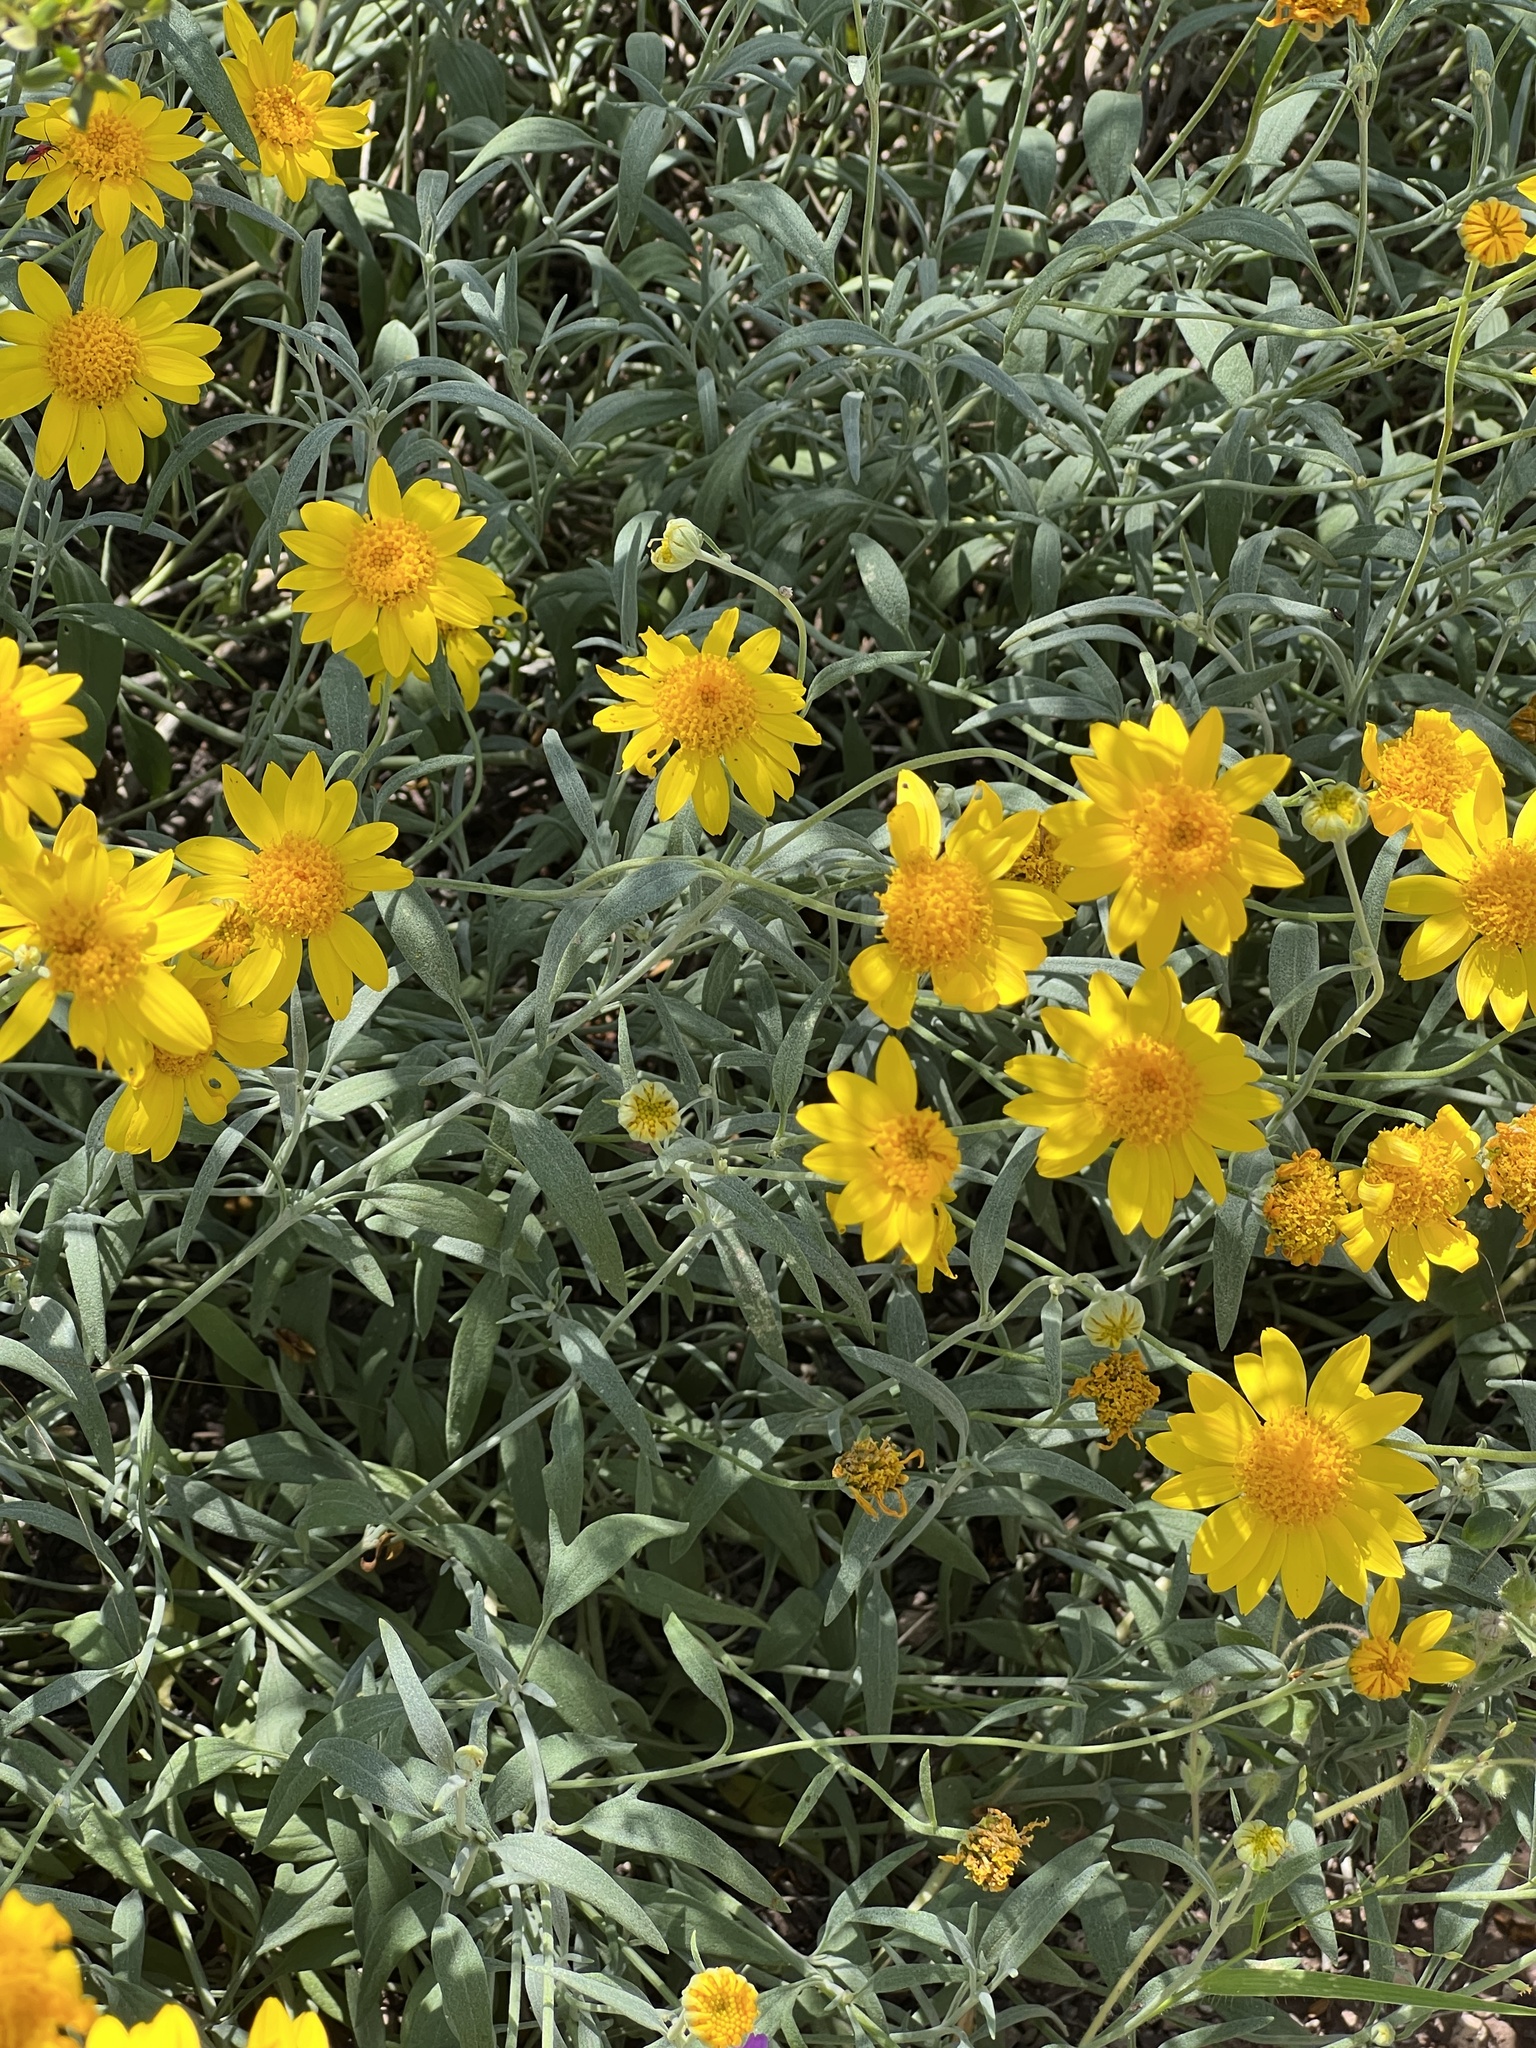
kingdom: Plantae
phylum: Tracheophyta
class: Magnoliopsida
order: Asterales
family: Asteraceae
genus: Picradeniopsis
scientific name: Picradeniopsis absinthifolia
